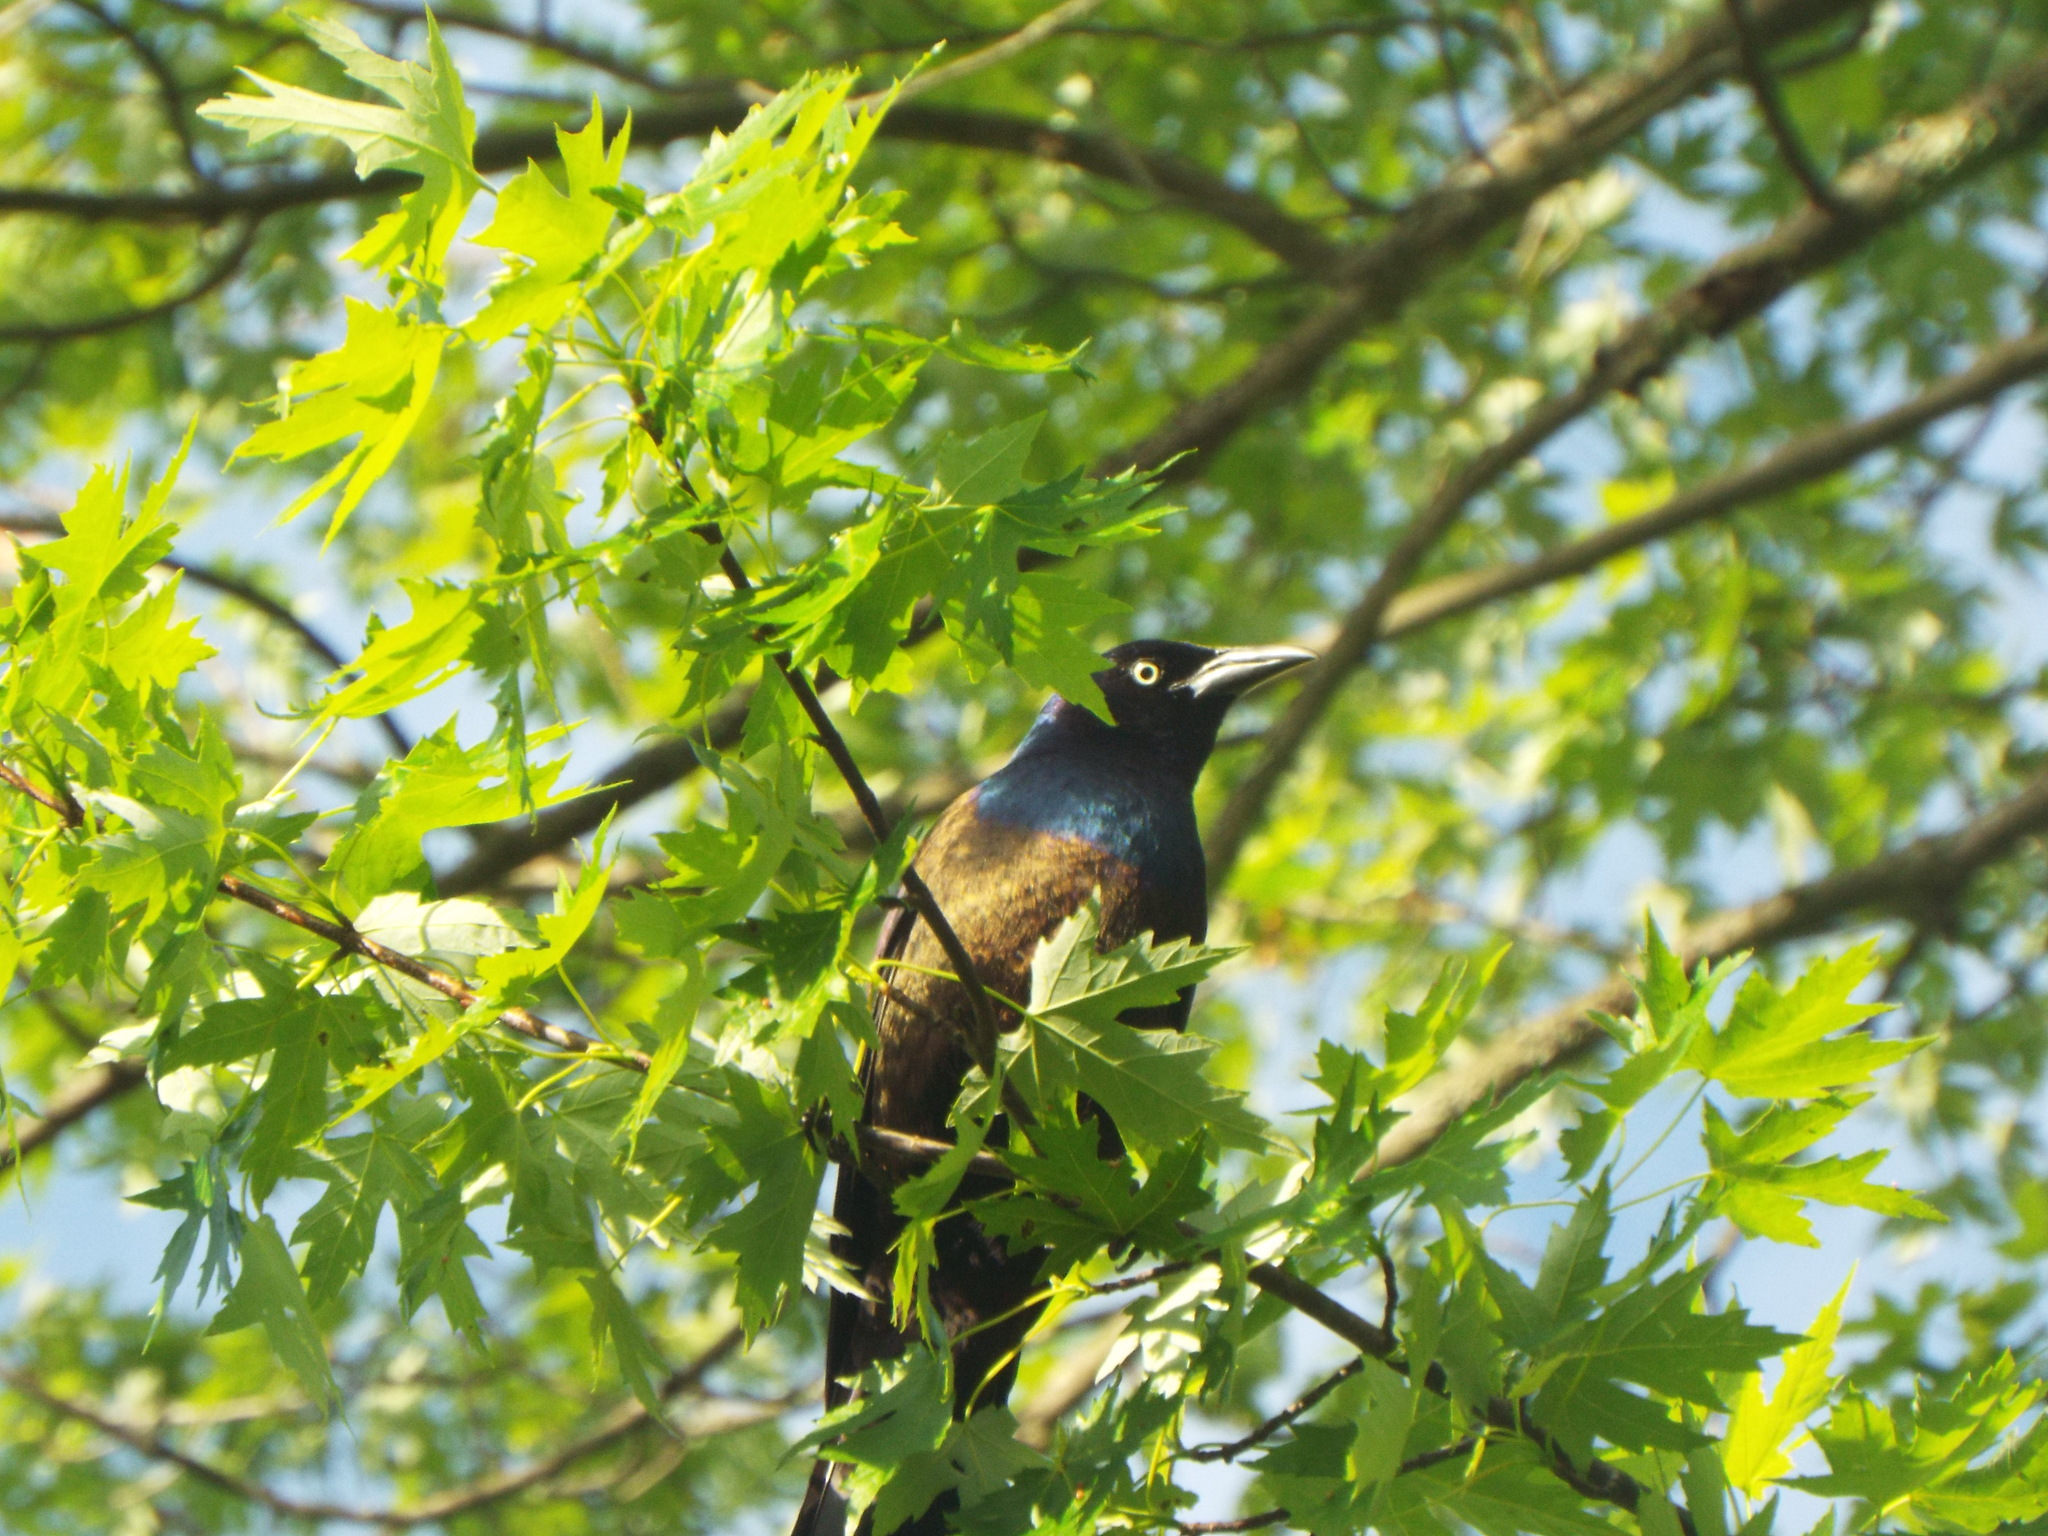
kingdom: Animalia
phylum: Chordata
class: Aves
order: Passeriformes
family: Icteridae
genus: Quiscalus
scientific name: Quiscalus quiscula
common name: Common grackle
